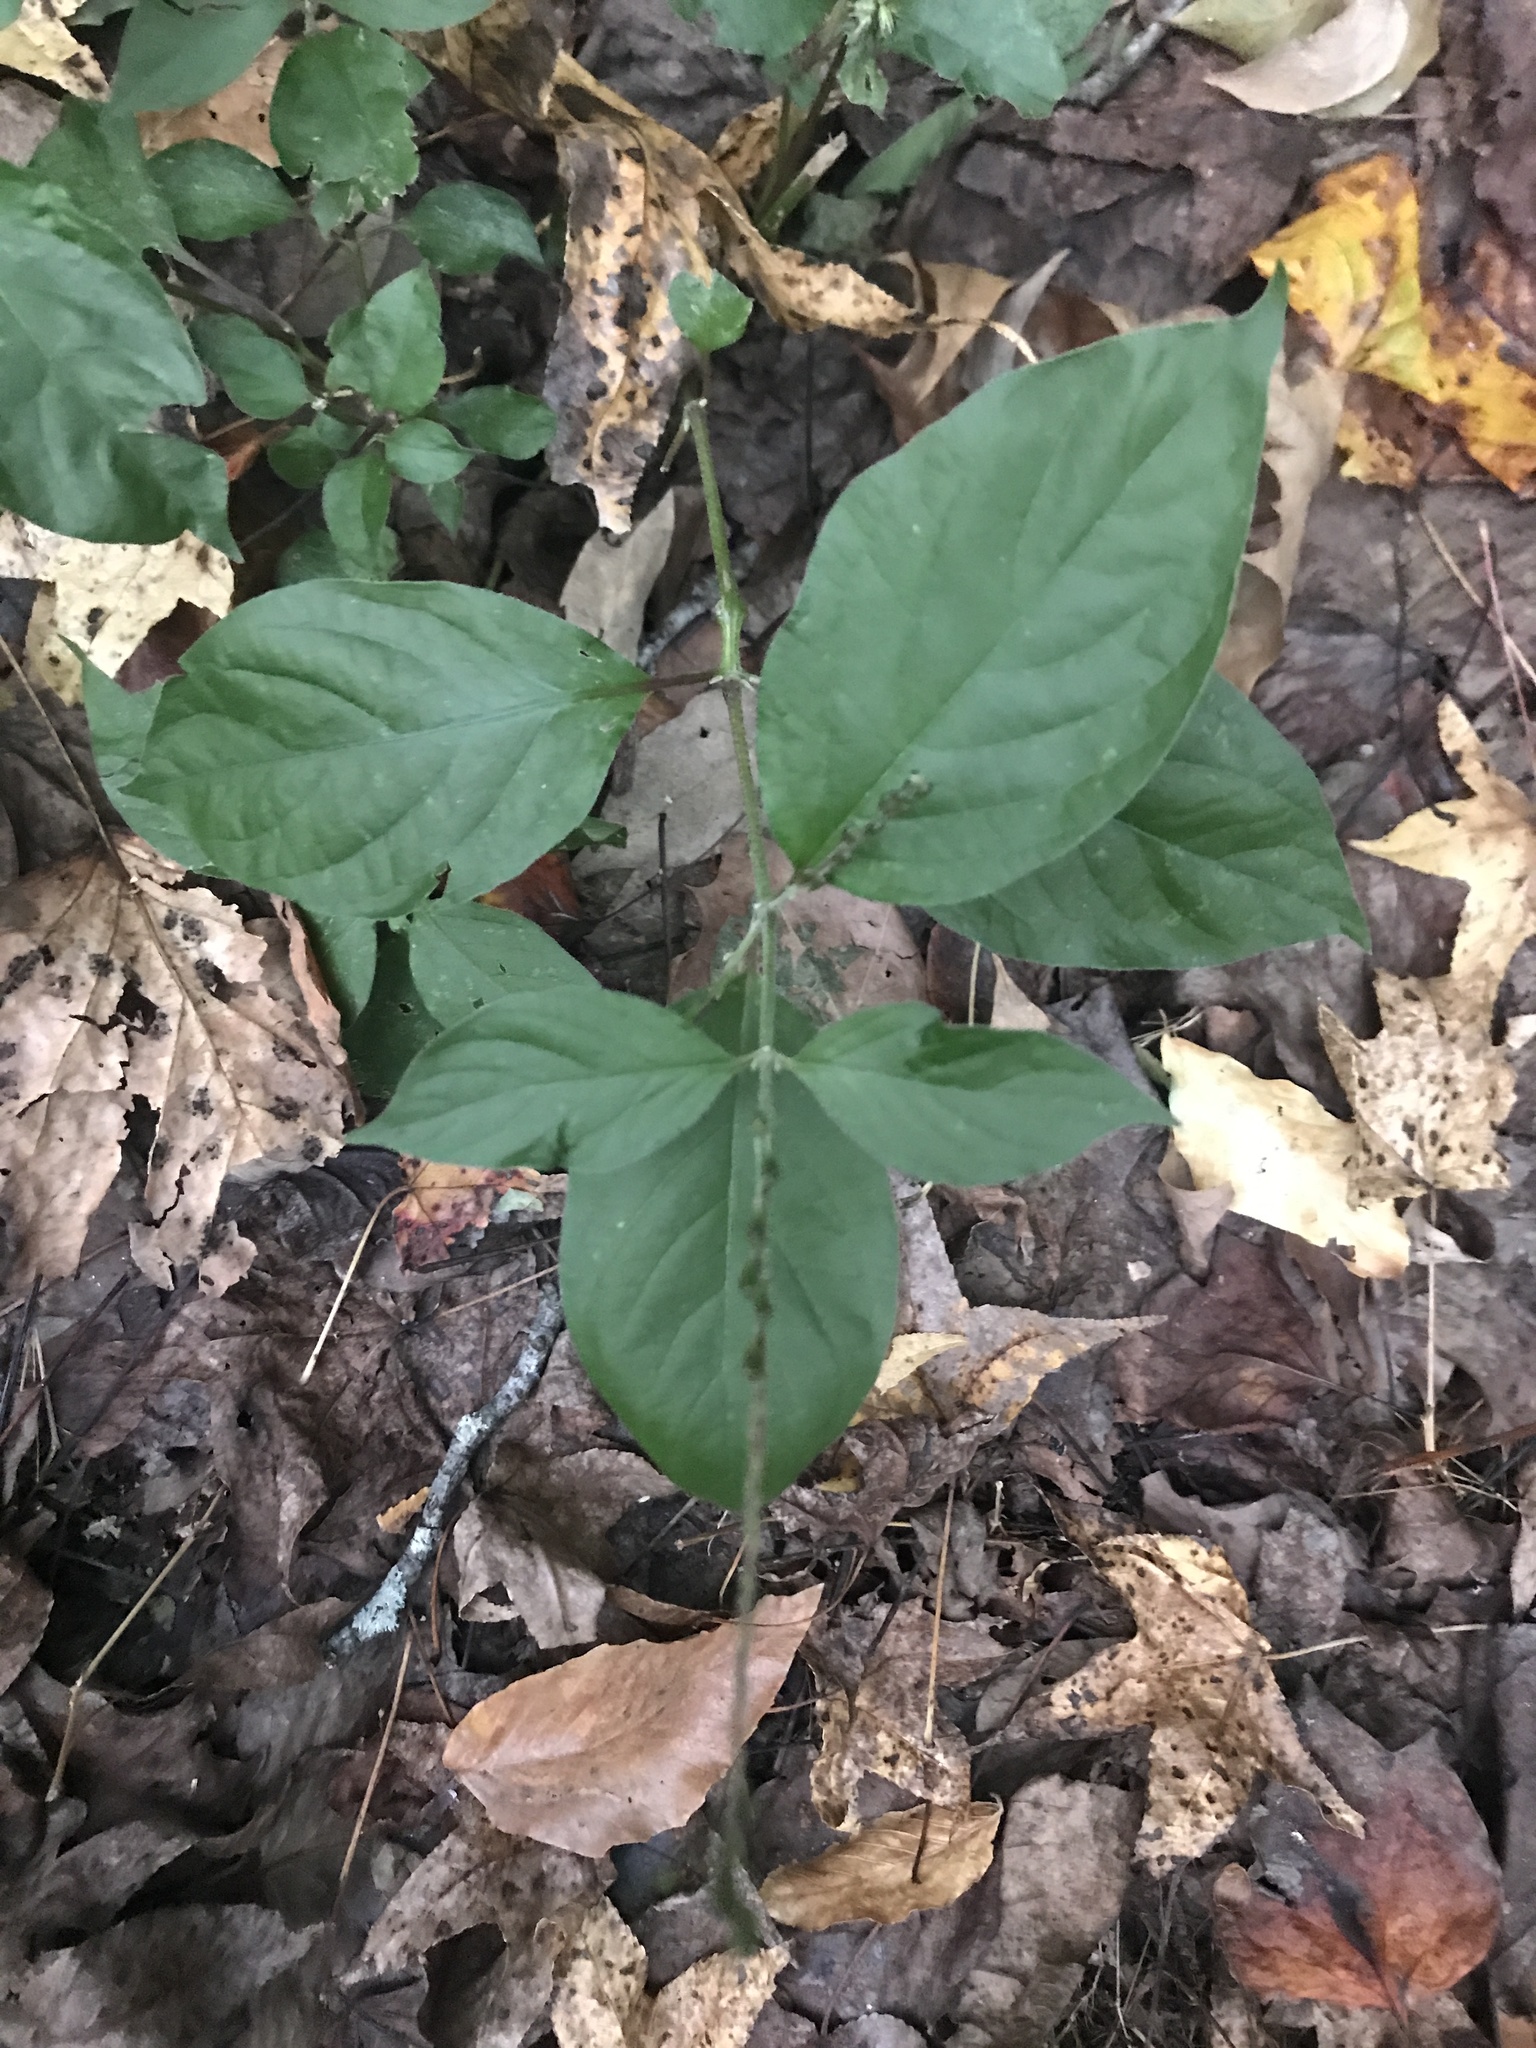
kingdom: Plantae
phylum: Tracheophyta
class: Magnoliopsida
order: Caryophyllales
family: Amaranthaceae
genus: Achyranthes
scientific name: Achyranthes bidentata
